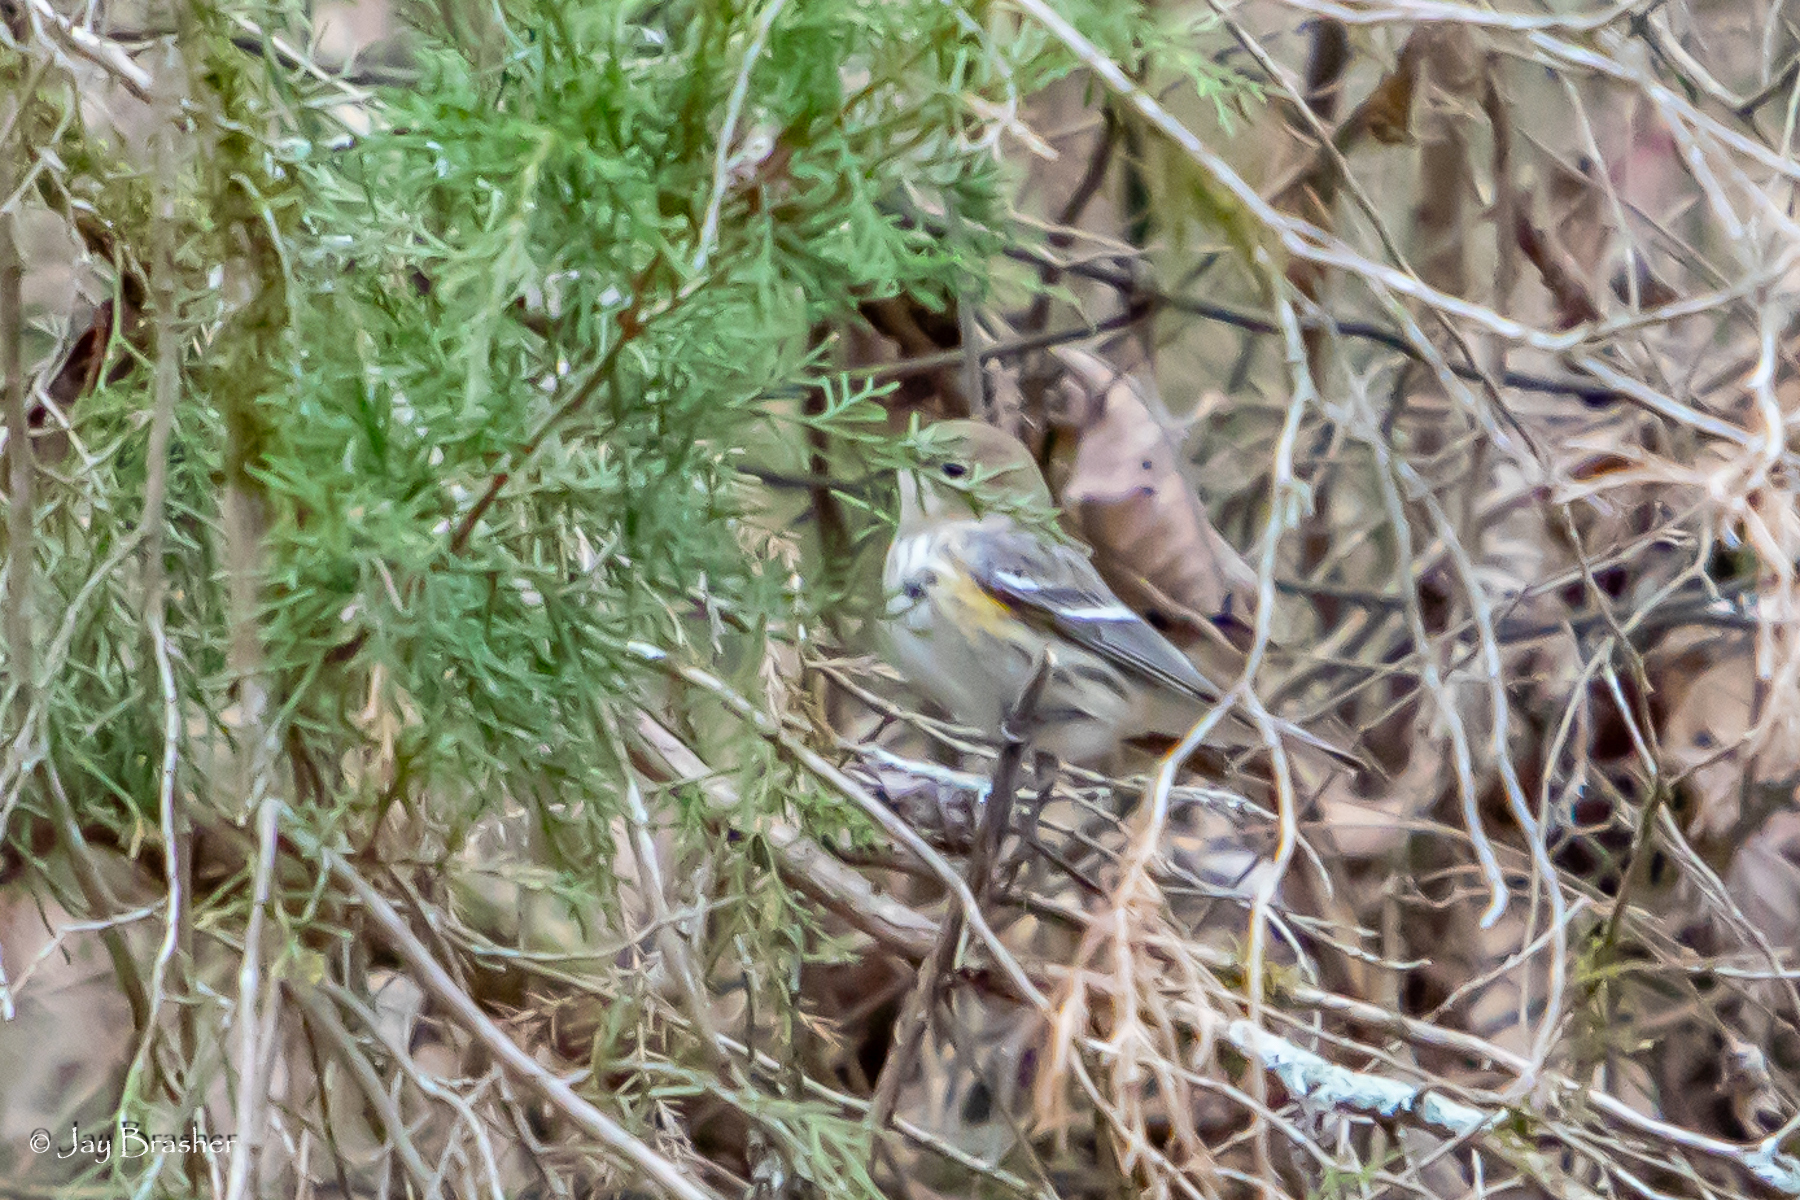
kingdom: Animalia
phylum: Chordata
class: Aves
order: Passeriformes
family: Parulidae
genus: Setophaga
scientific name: Setophaga coronata
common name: Myrtle warbler
